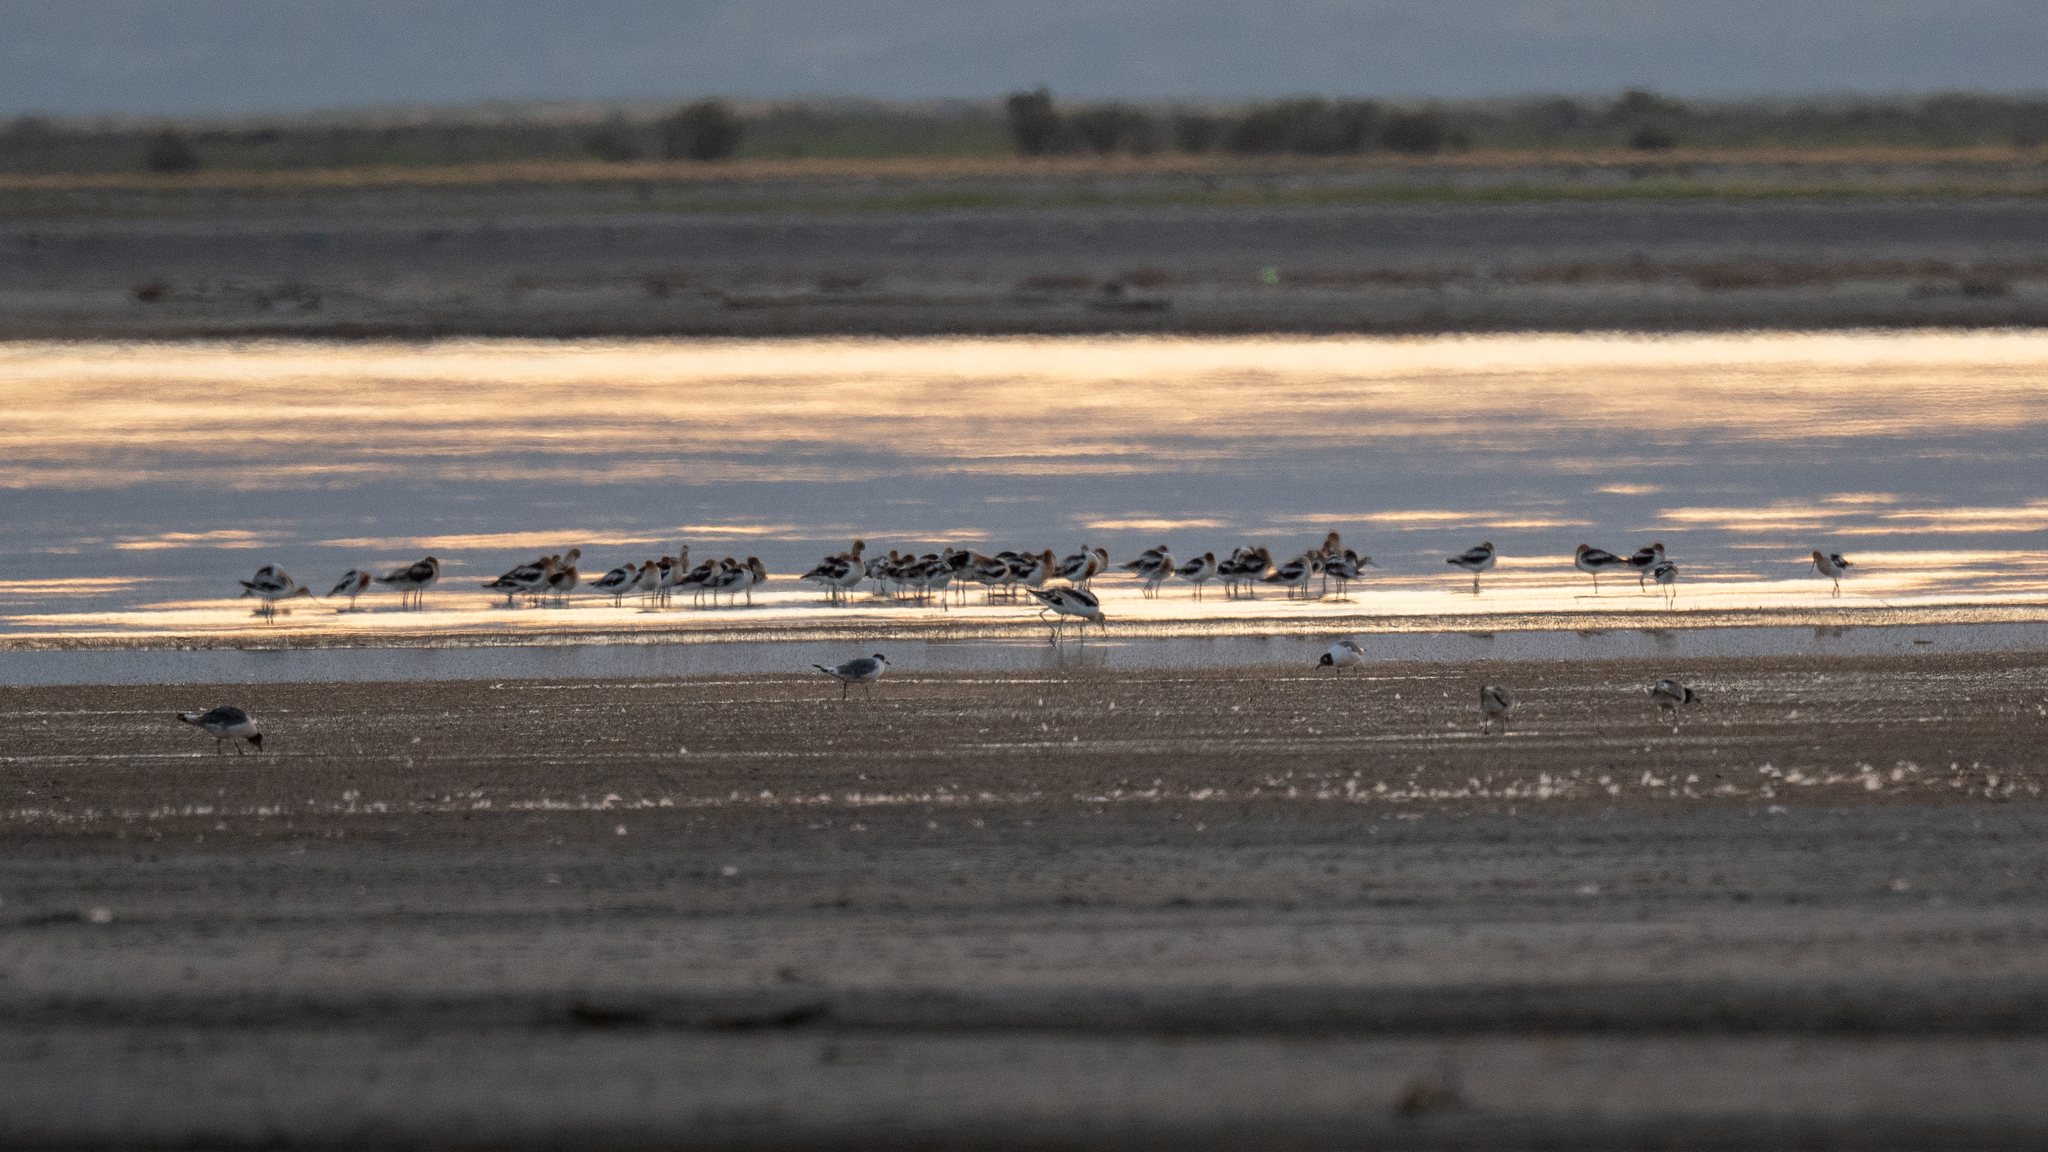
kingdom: Animalia
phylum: Chordata
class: Aves
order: Charadriiformes
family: Recurvirostridae
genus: Recurvirostra
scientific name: Recurvirostra americana
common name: American avocet
